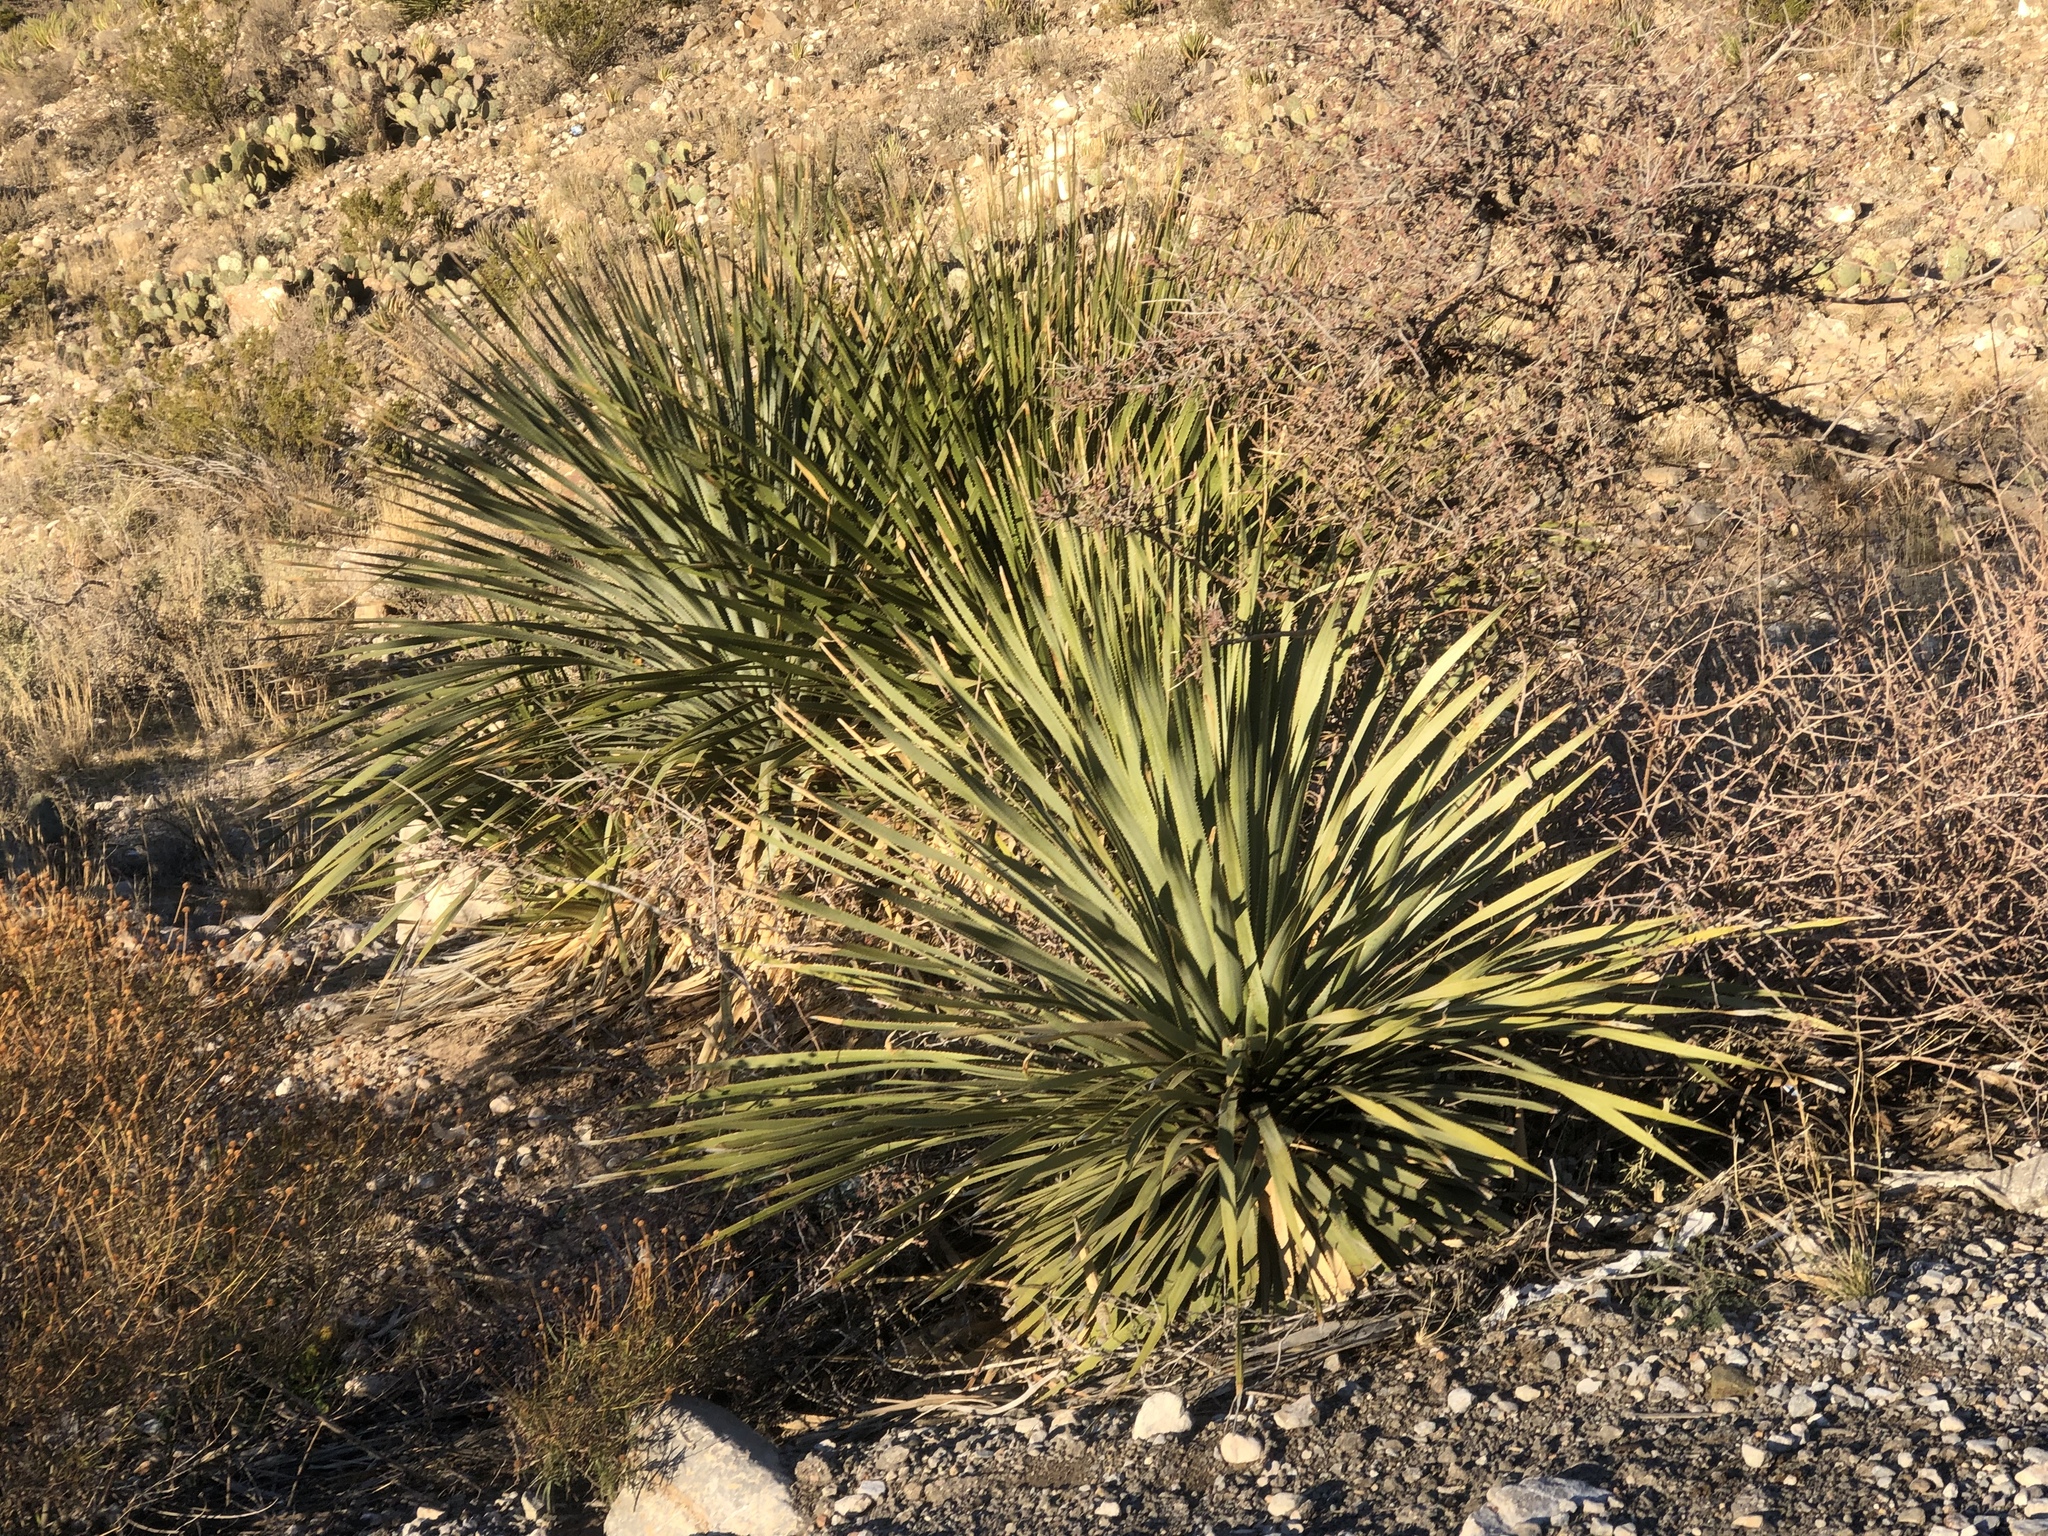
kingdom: Plantae
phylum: Tracheophyta
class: Liliopsida
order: Asparagales
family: Asparagaceae
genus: Dasylirion
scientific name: Dasylirion wheeleri
